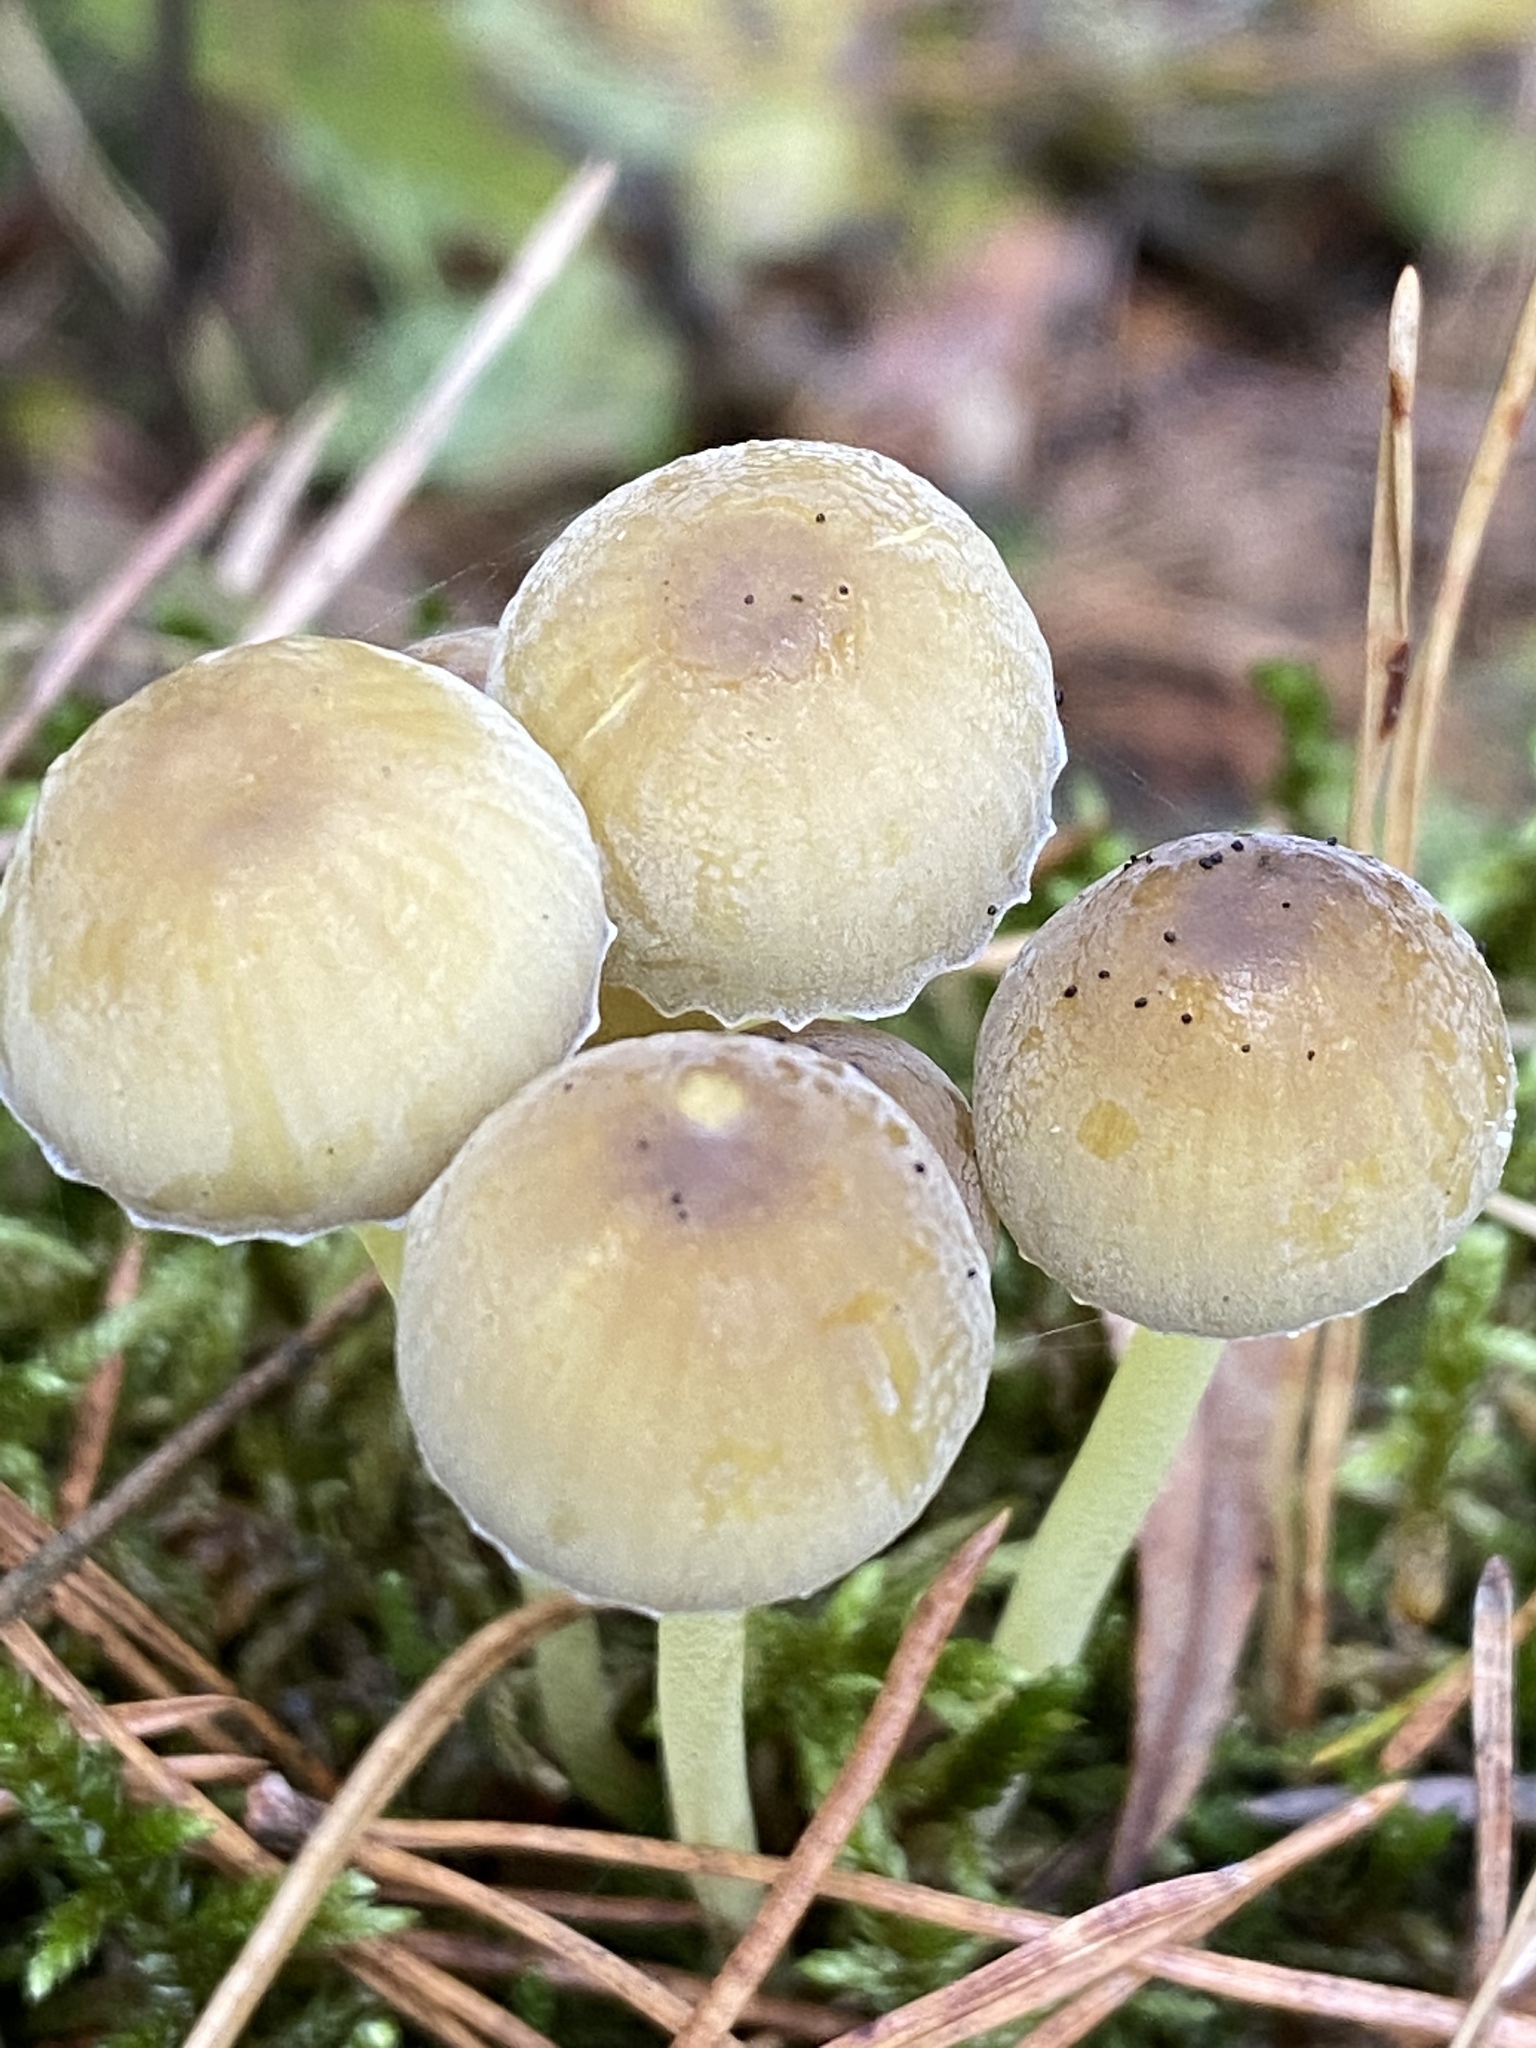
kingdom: Fungi
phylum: Basidiomycota
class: Agaricomycetes
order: Agaricales
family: Mycenaceae
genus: Mycena
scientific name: Mycena epipterygia
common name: Yellowleg bonnet
